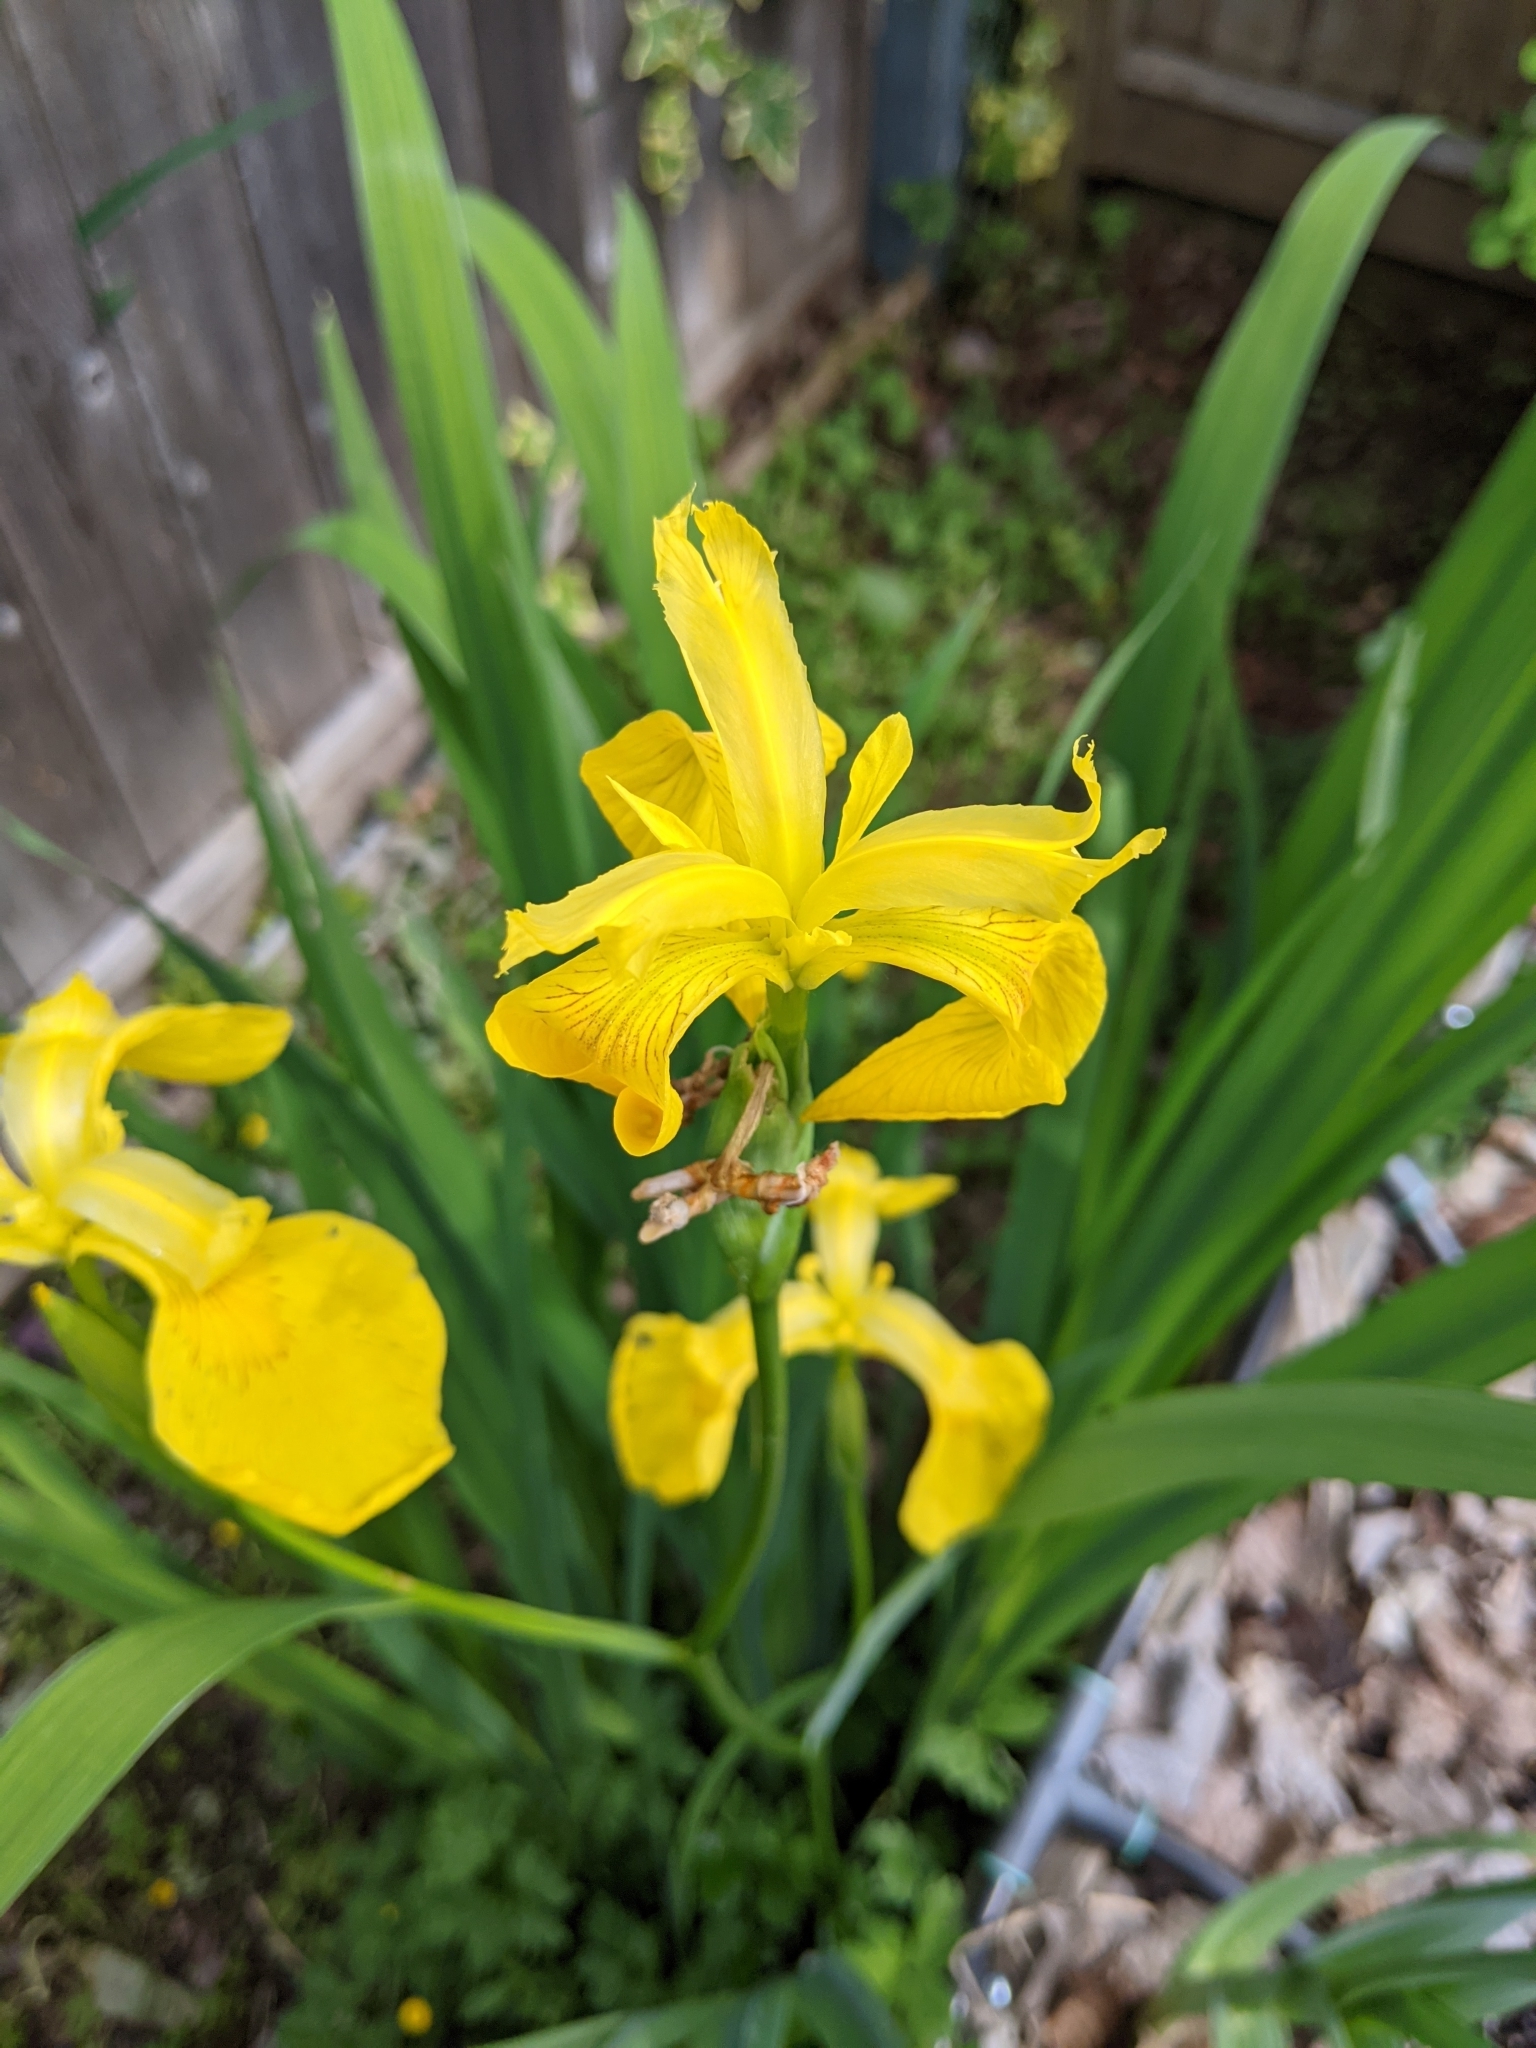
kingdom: Plantae
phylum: Tracheophyta
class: Liliopsida
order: Asparagales
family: Iridaceae
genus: Iris
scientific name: Iris pseudacorus
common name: Yellow flag
